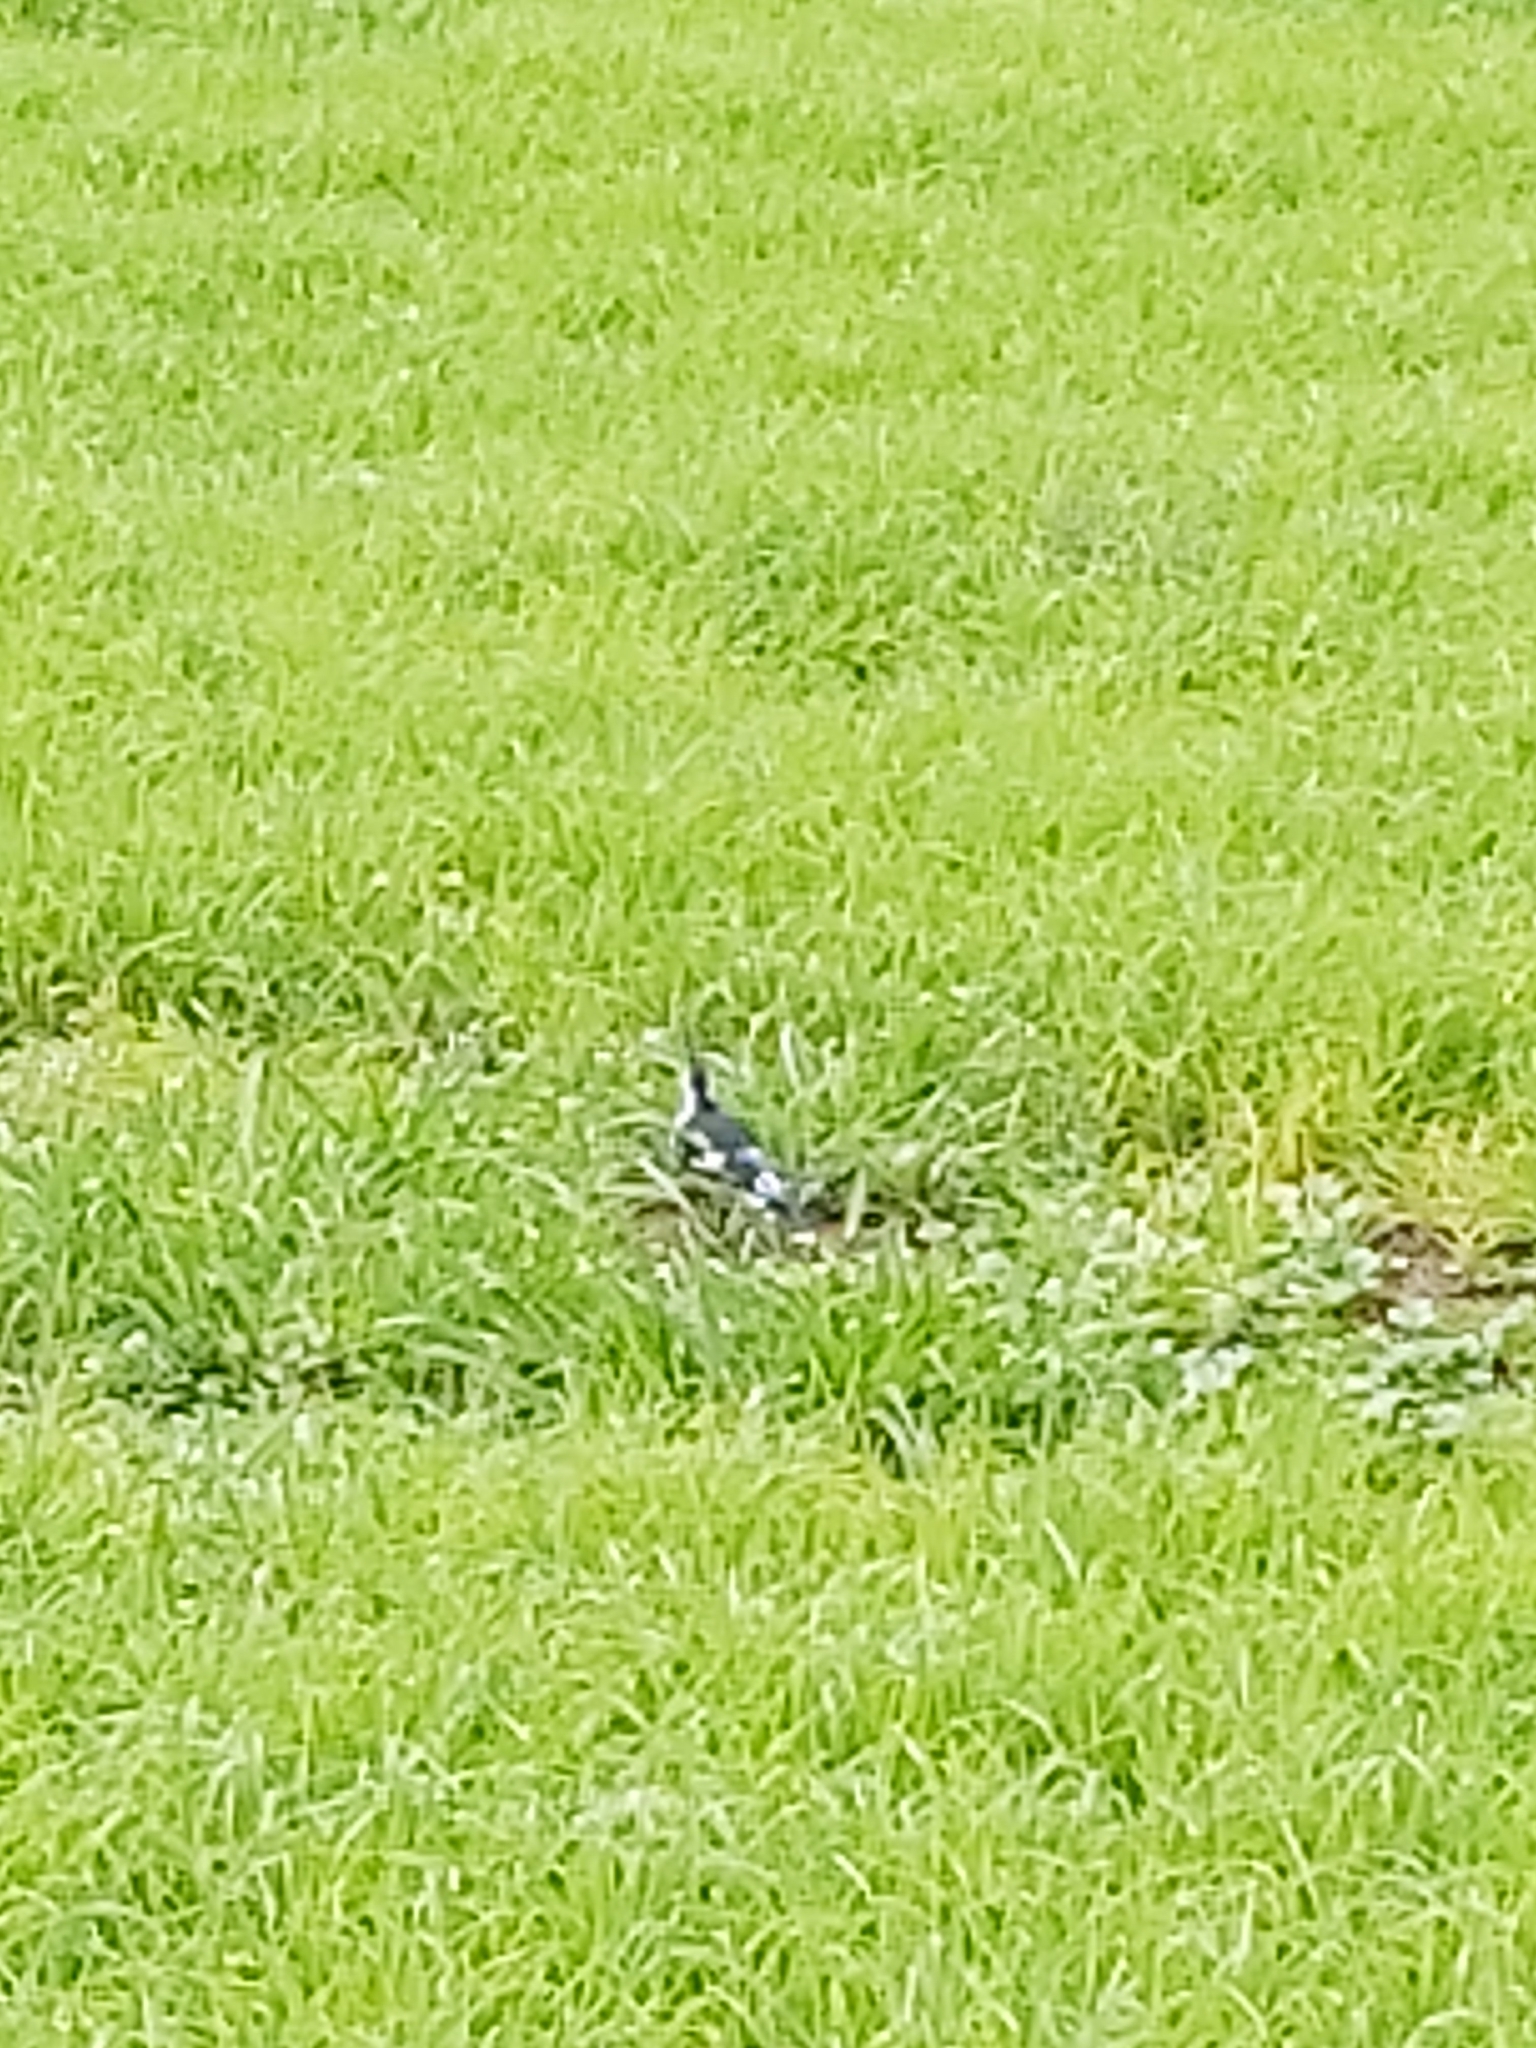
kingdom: Animalia
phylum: Chordata
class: Aves
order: Passeriformes
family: Monarchidae
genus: Grallina
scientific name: Grallina cyanoleuca
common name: Magpie-lark
